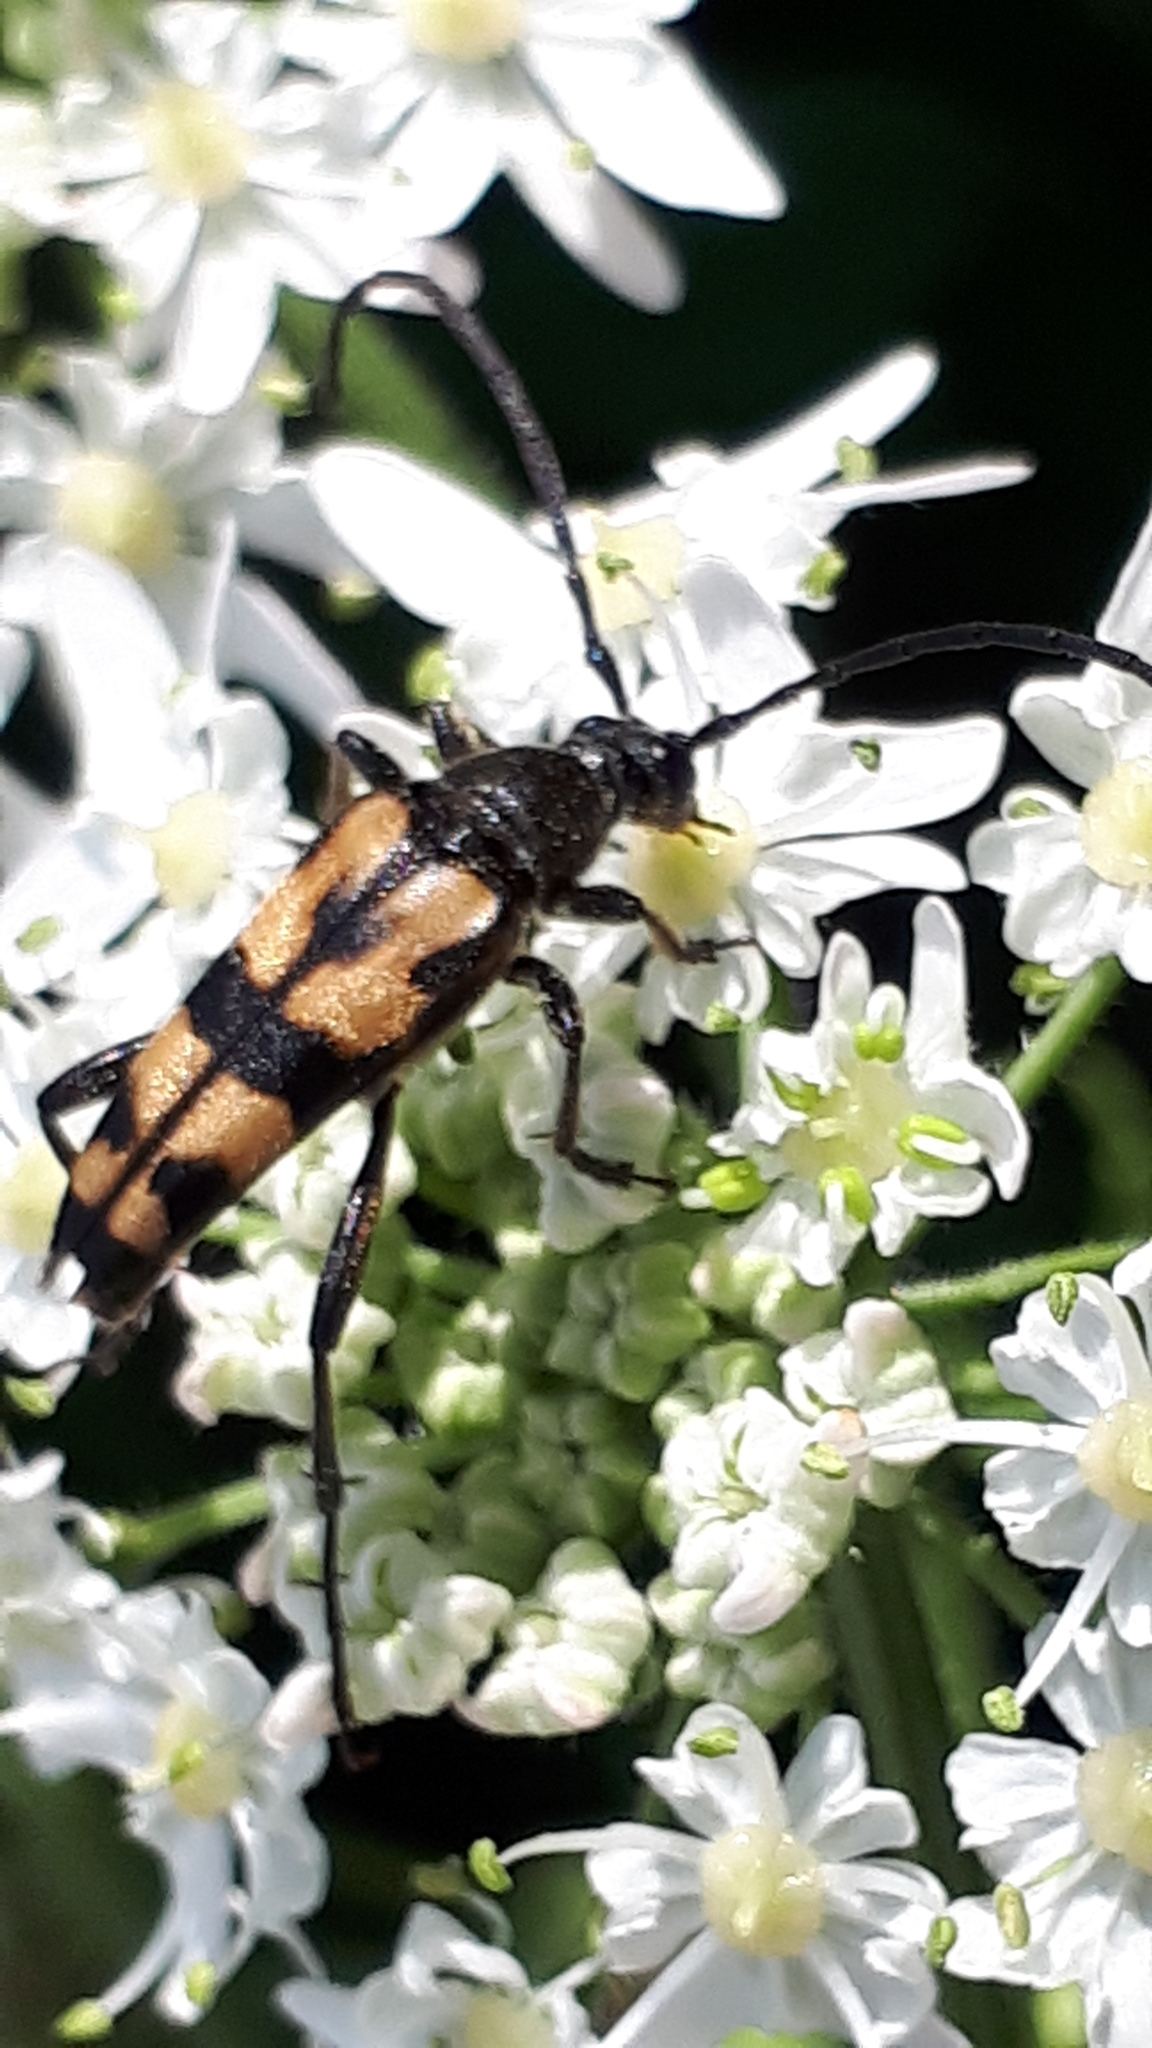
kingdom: Animalia
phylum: Arthropoda
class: Insecta
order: Coleoptera
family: Cerambycidae
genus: Leptura
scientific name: Leptura quadrifasciata
